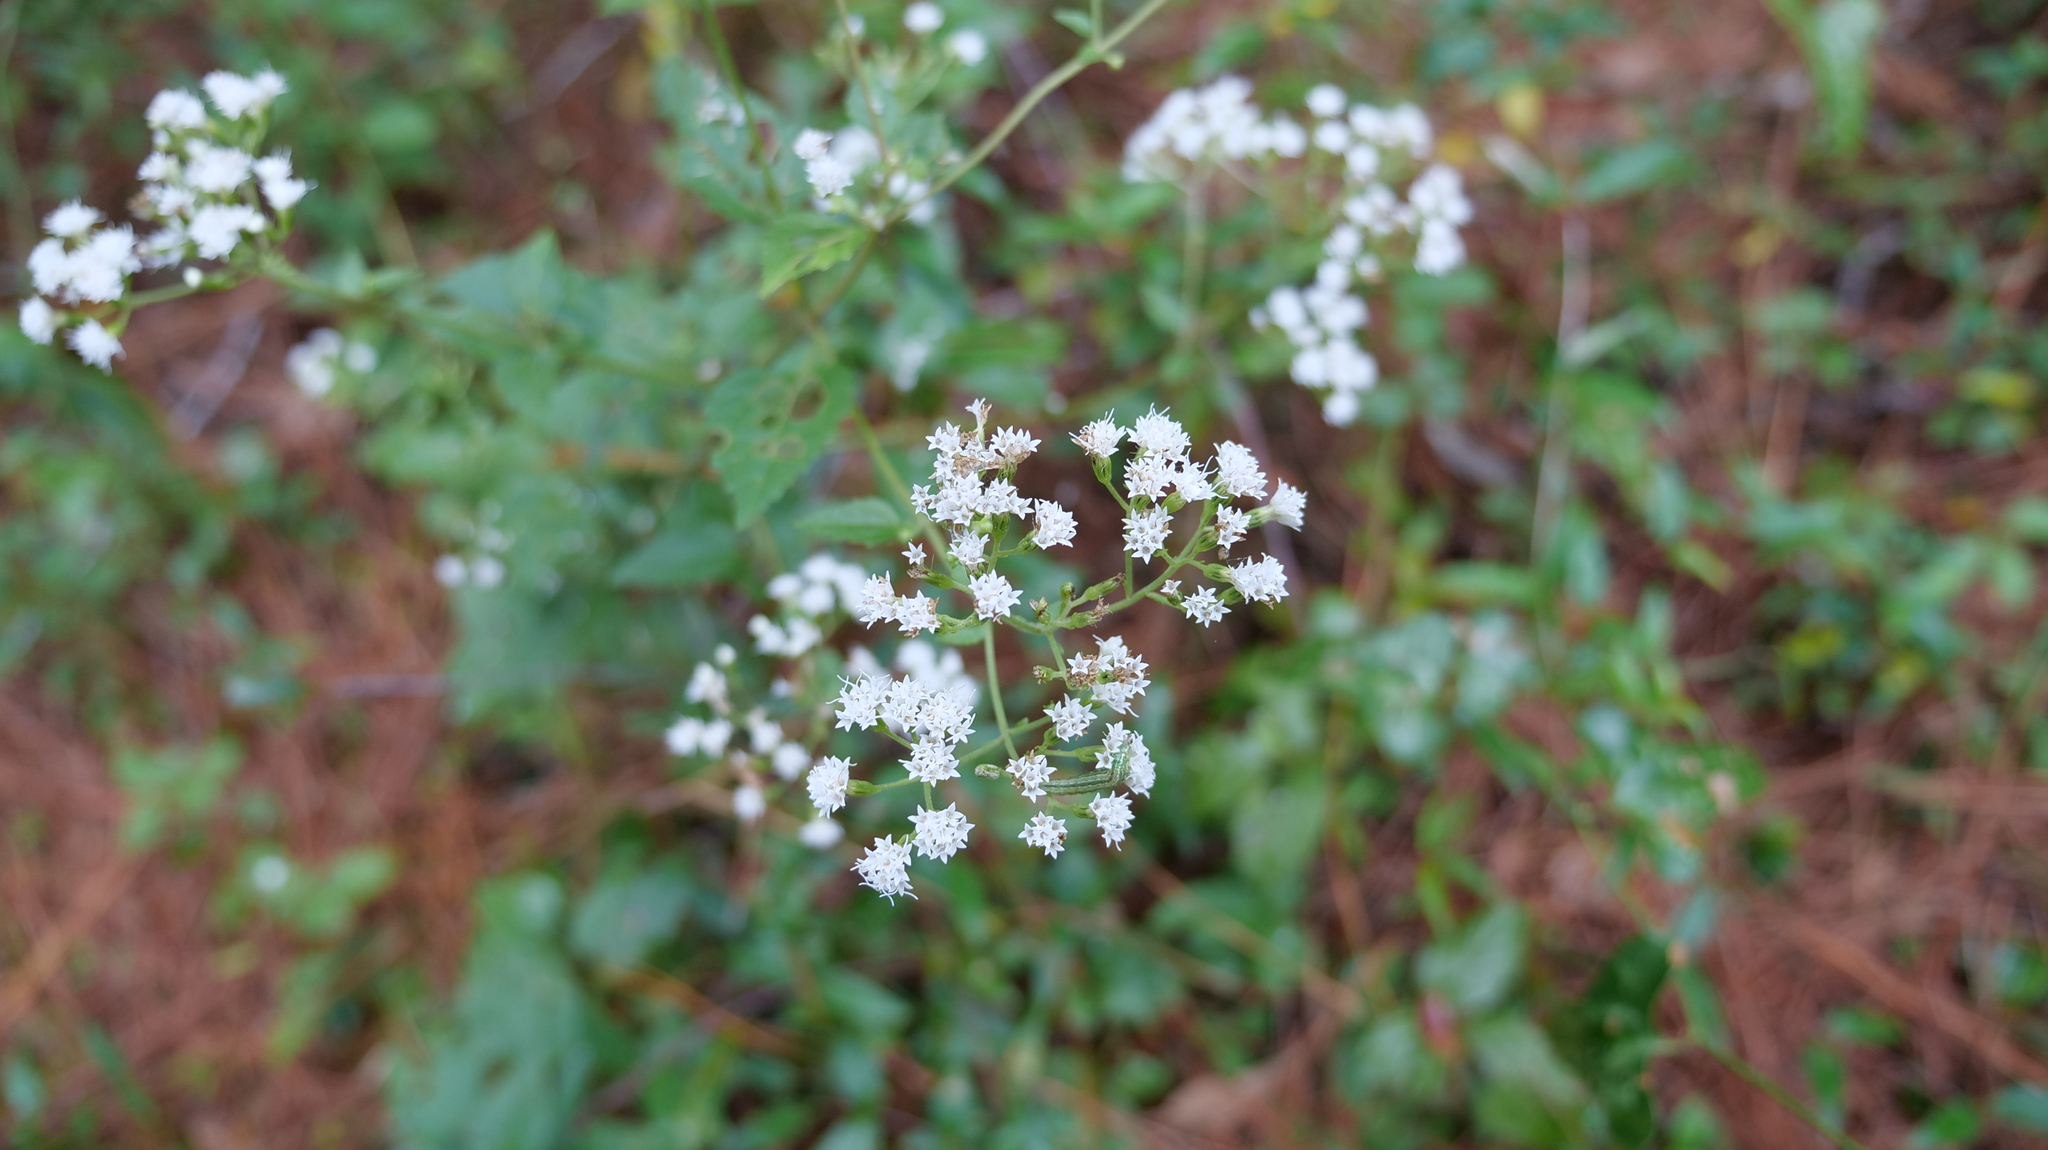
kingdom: Plantae
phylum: Tracheophyta
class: Magnoliopsida
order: Asterales
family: Asteraceae
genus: Ageratina
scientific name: Ageratina jucunda
